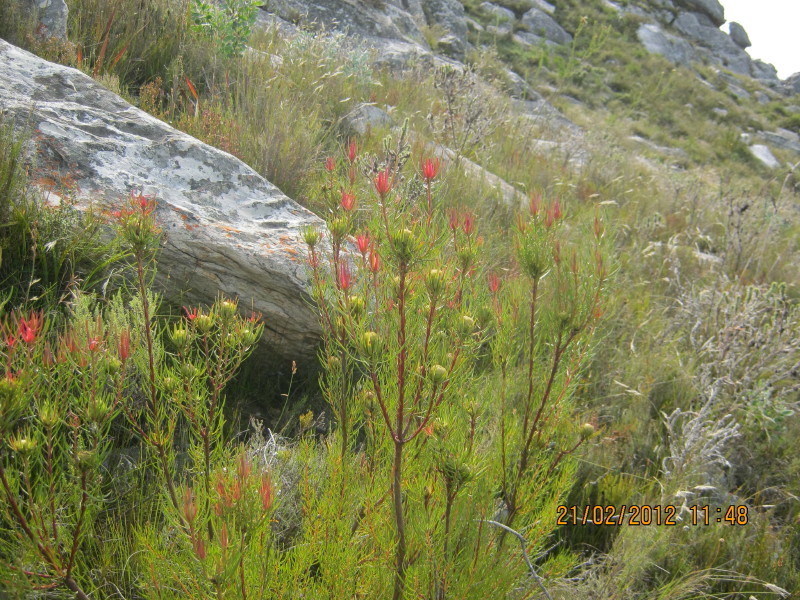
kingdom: Plantae
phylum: Tracheophyta
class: Magnoliopsida
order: Proteales
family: Proteaceae
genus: Leucadendron
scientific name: Leucadendron spissifolium
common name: Spear-leaf conebush
